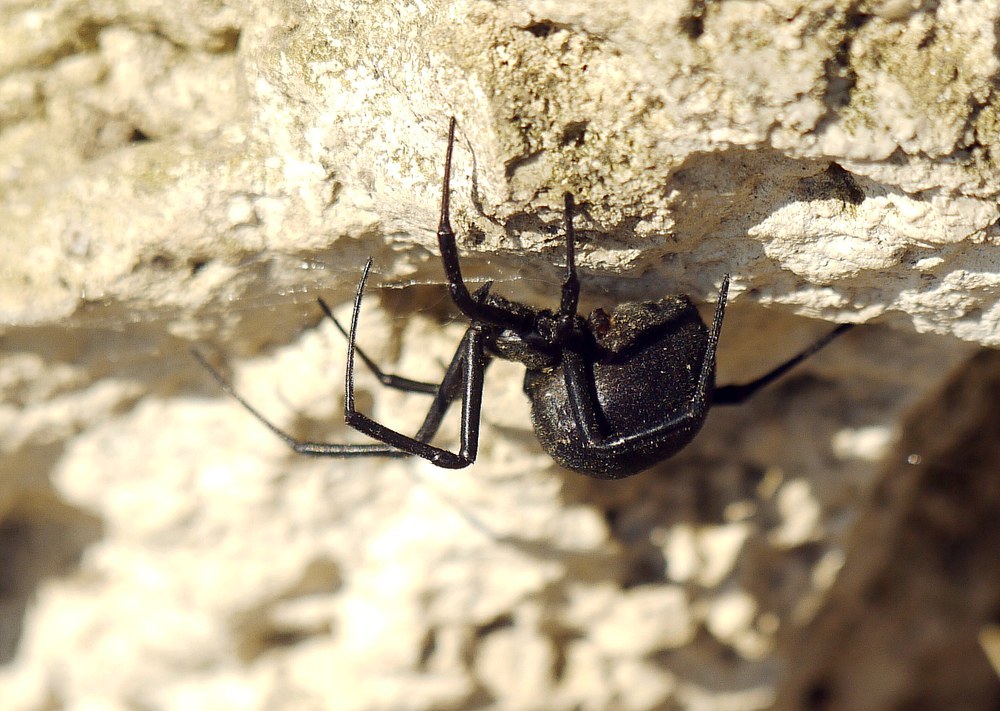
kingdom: Animalia
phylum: Arthropoda
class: Arachnida
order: Araneae
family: Theridiidae
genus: Latrodectus
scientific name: Latrodectus tredecimguttatus
